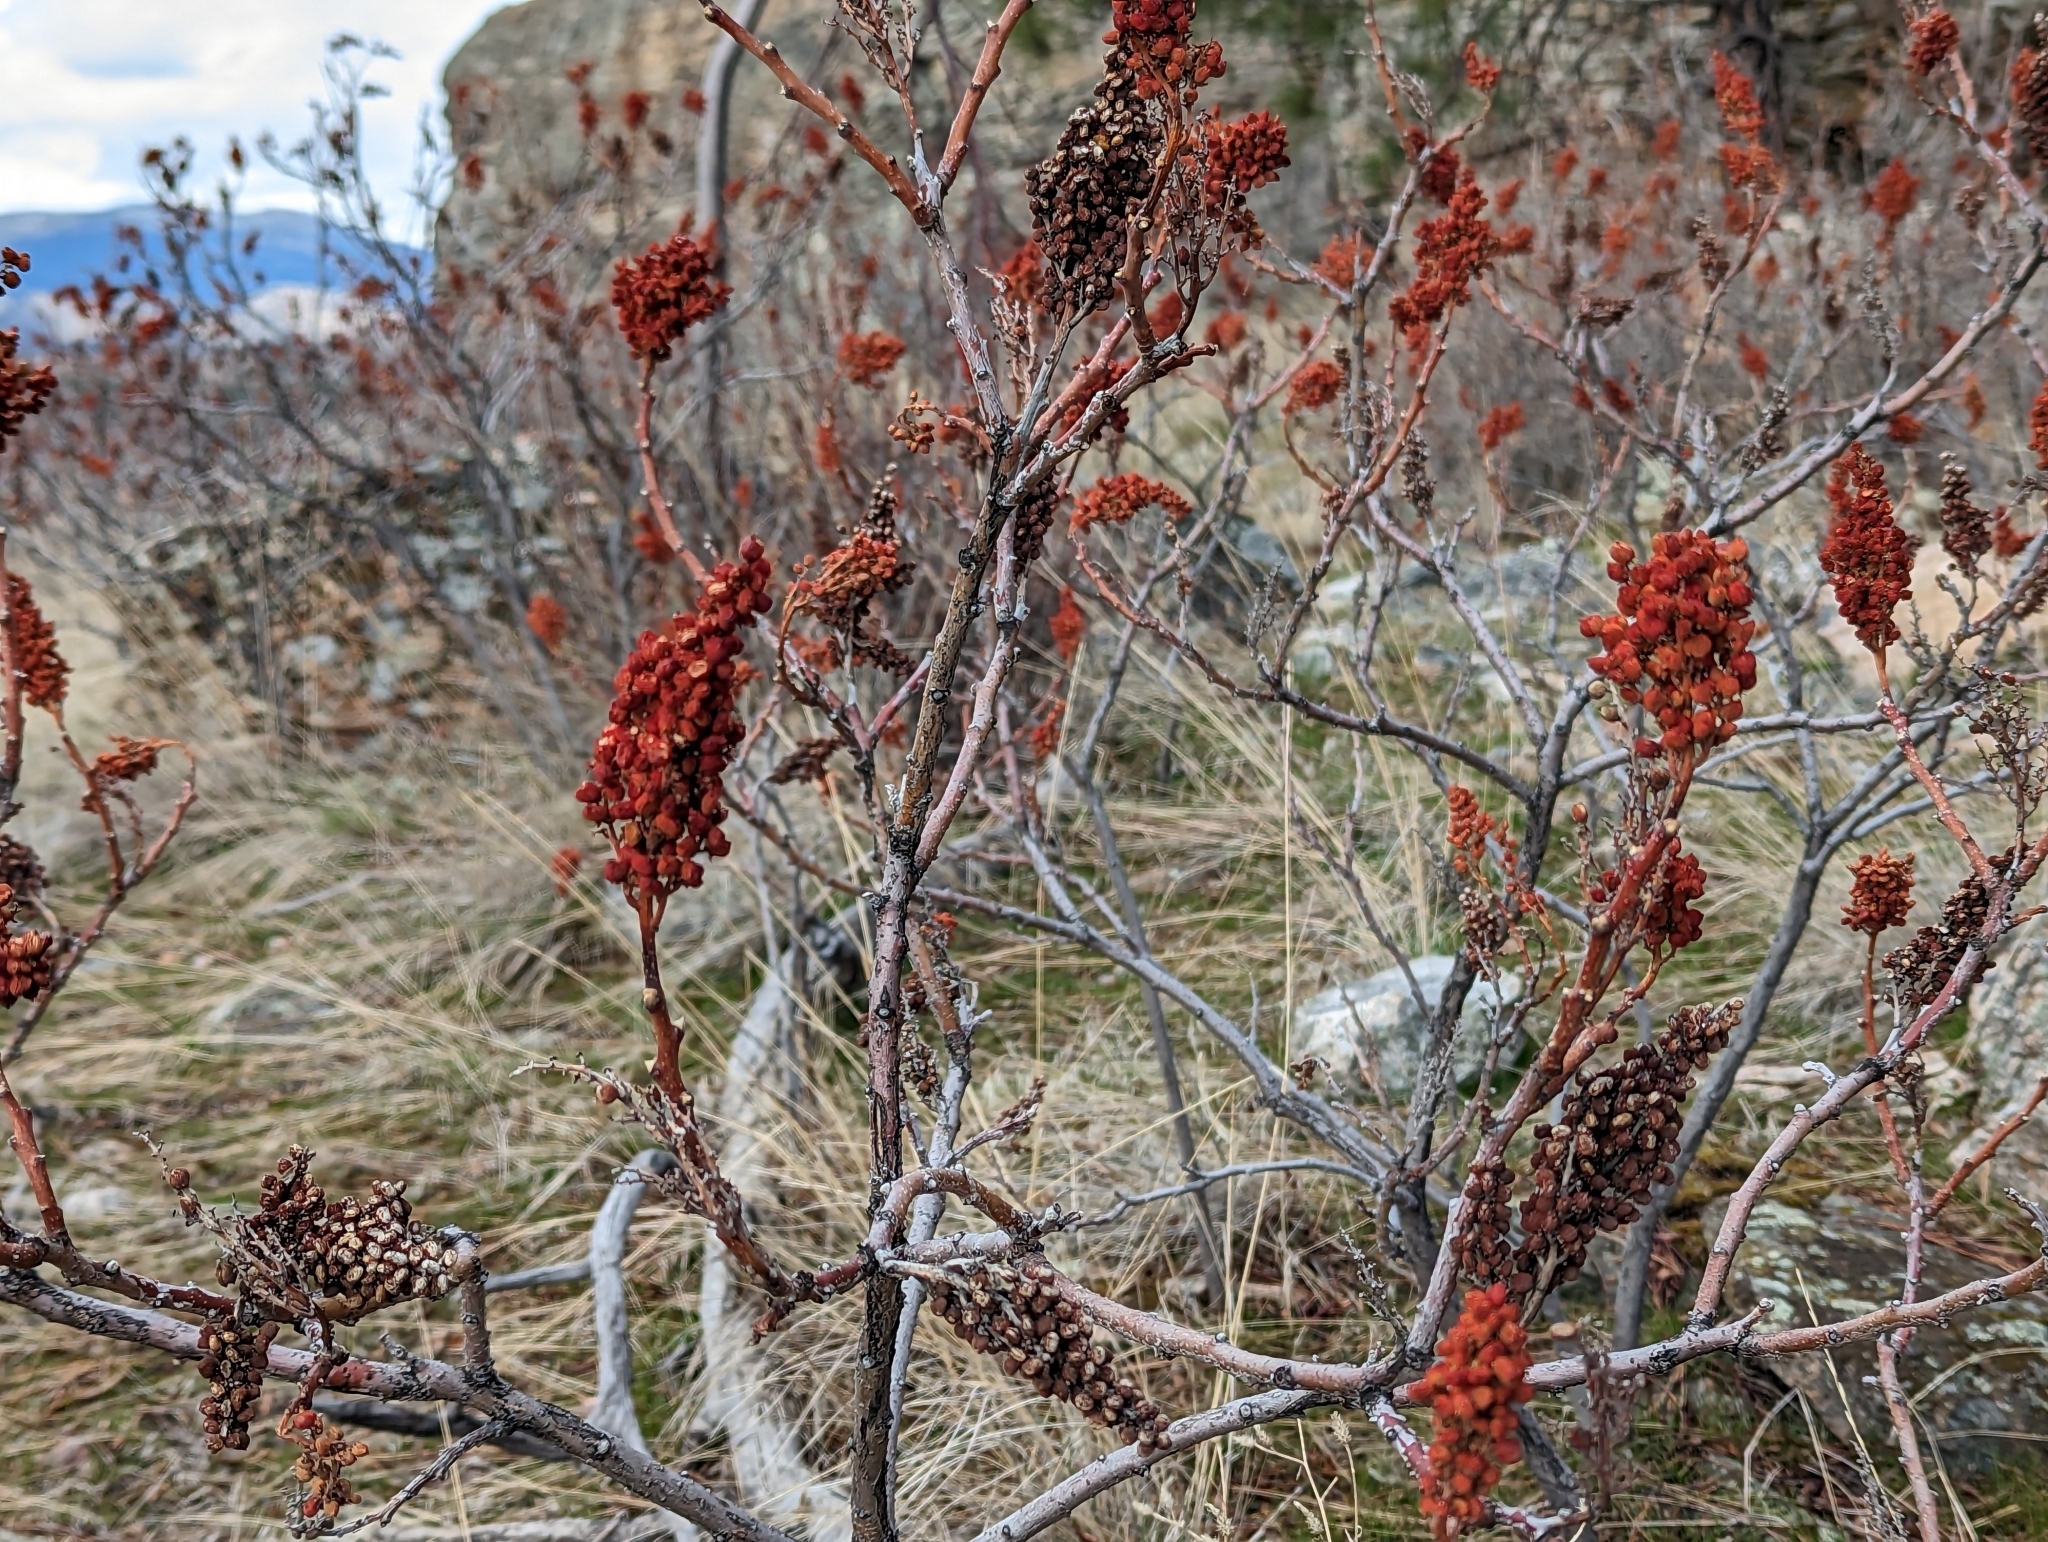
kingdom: Plantae
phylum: Tracheophyta
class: Magnoliopsida
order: Sapindales
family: Anacardiaceae
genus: Rhus
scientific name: Rhus glabra
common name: Scarlet sumac
